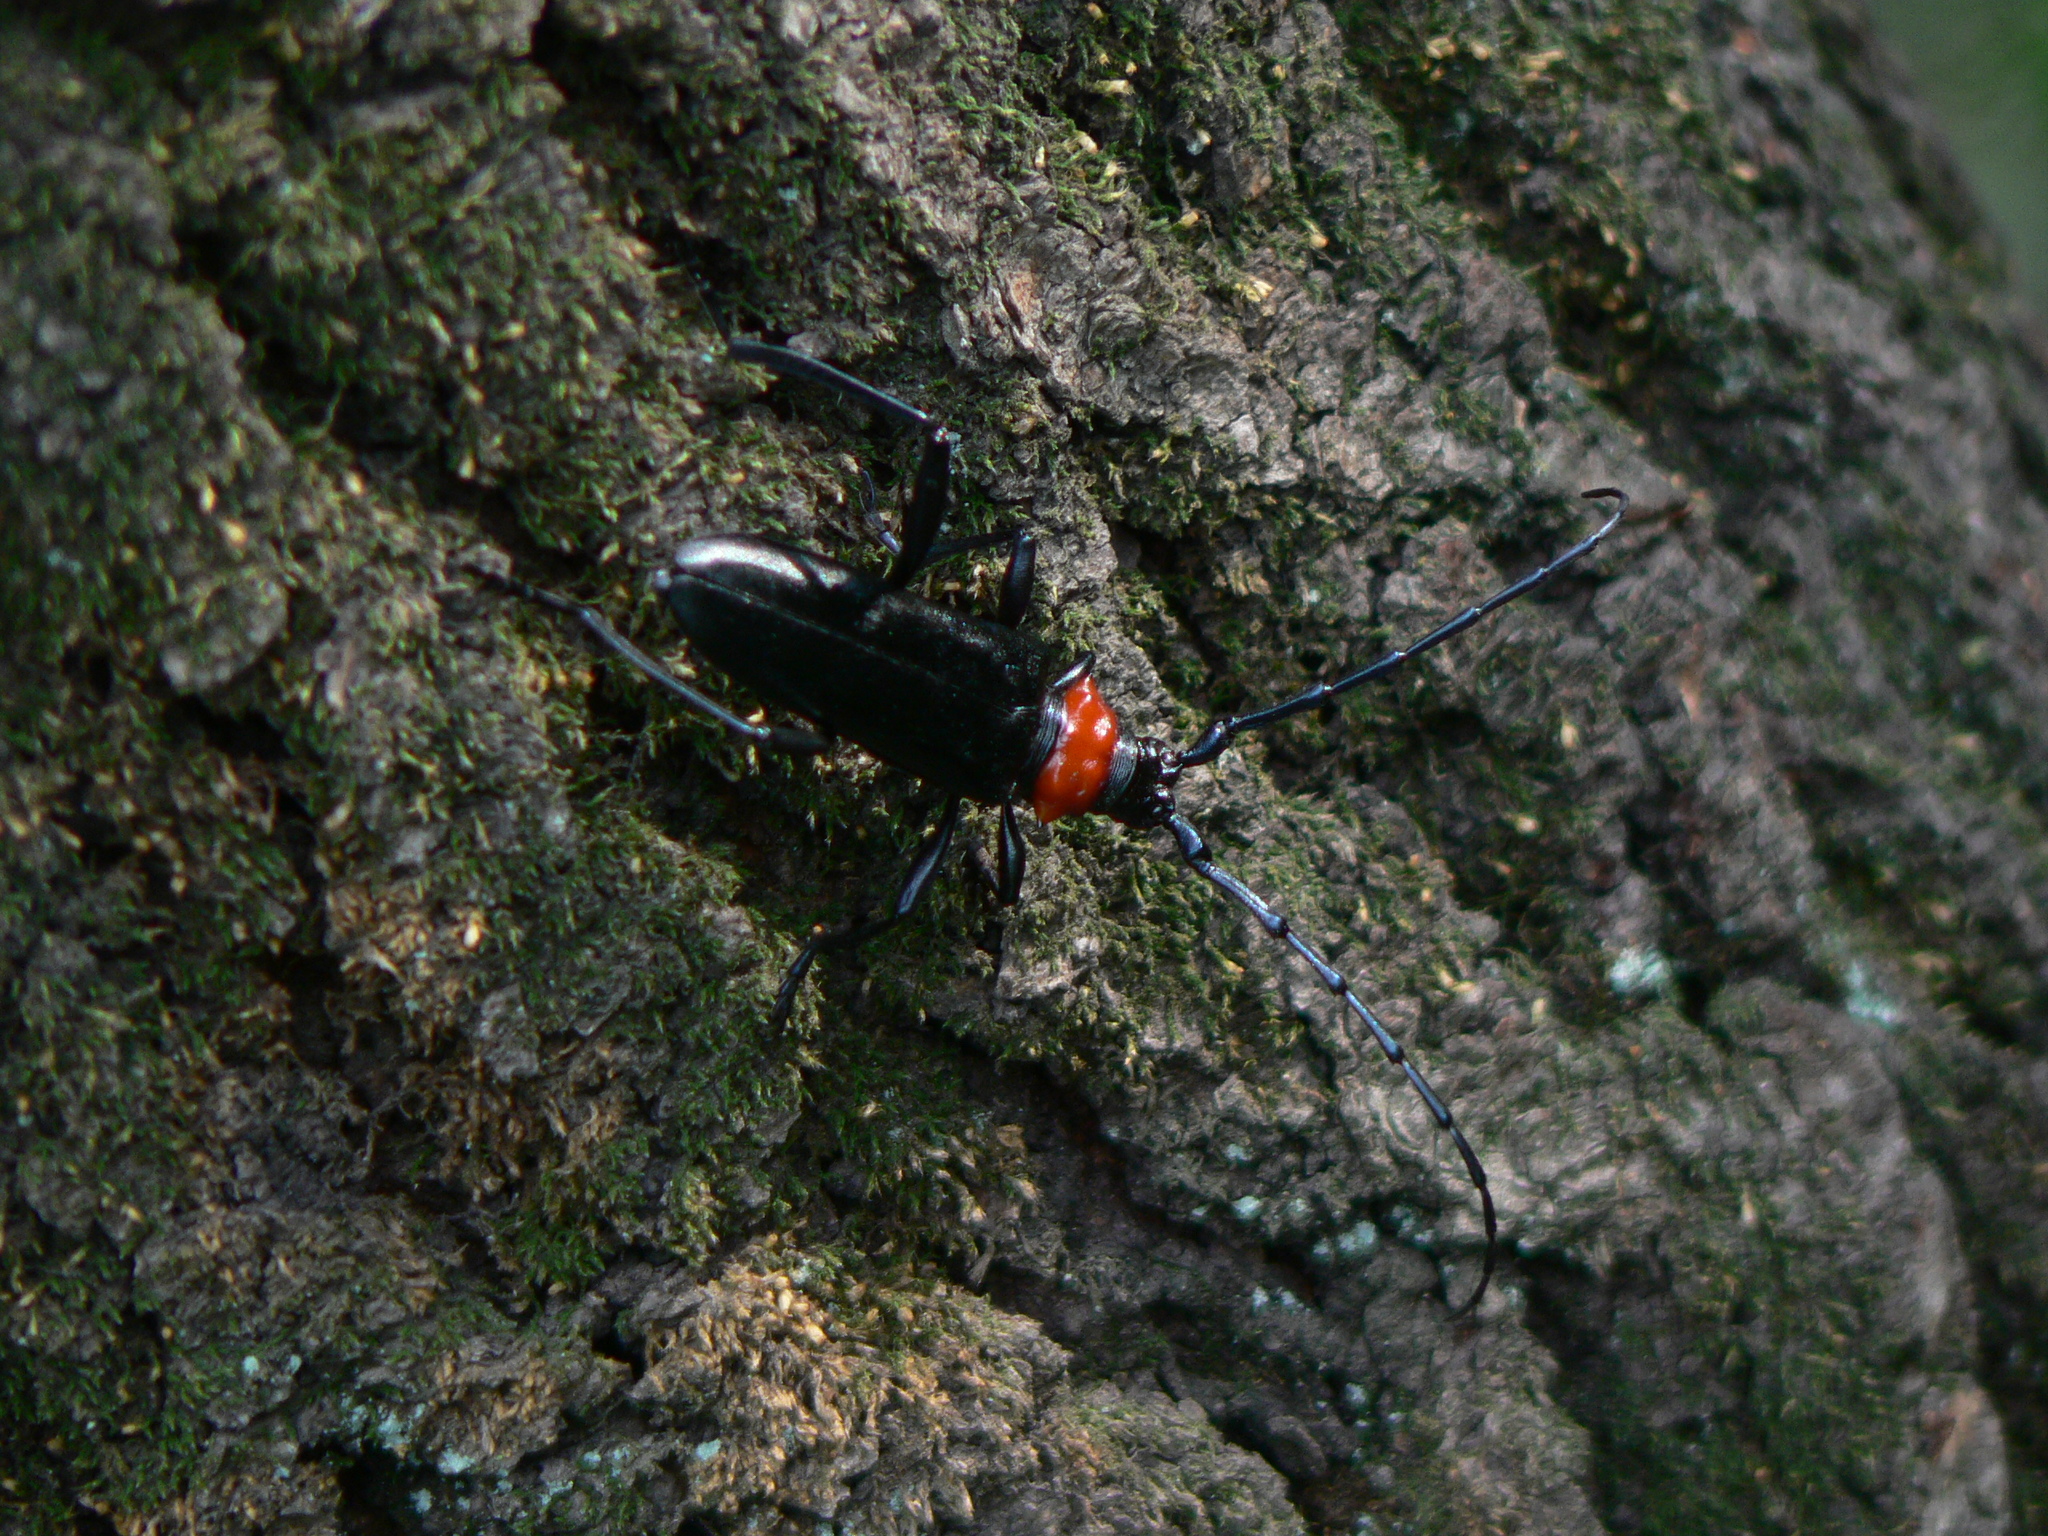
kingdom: Animalia
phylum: Arthropoda
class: Insecta
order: Coleoptera
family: Cerambycidae
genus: Aromia
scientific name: Aromia bungii
